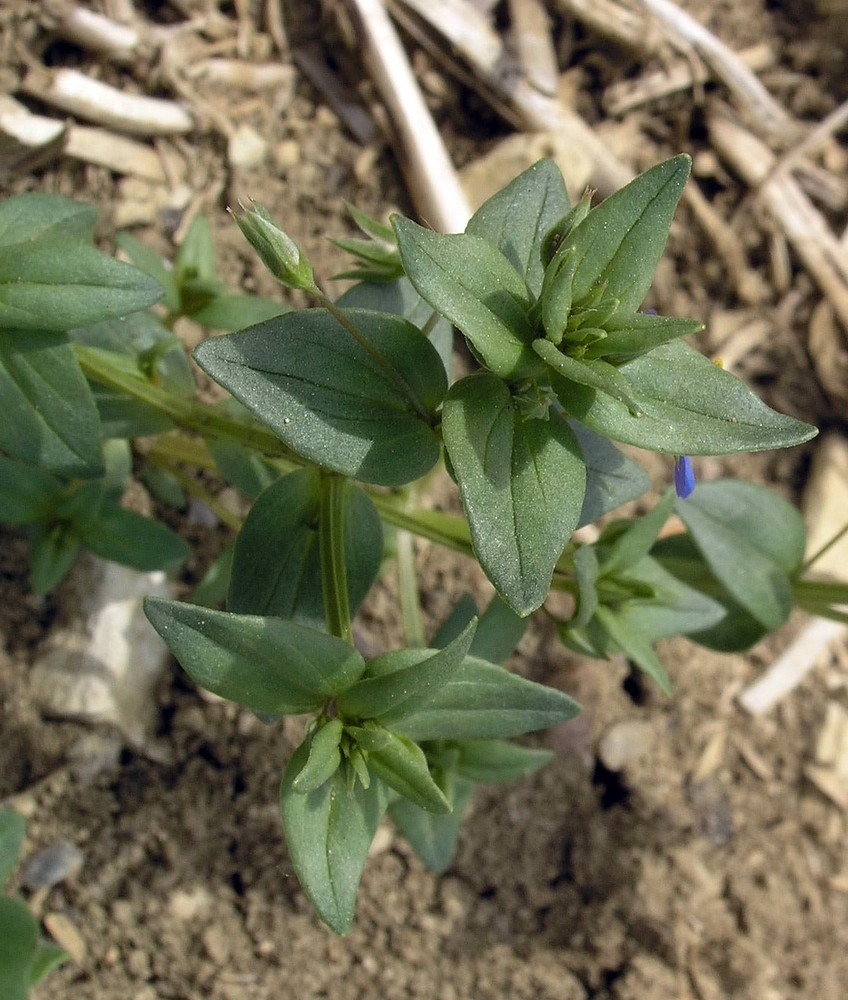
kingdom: Plantae
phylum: Tracheophyta
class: Magnoliopsida
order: Ericales
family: Primulaceae
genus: Lysimachia
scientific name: Lysimachia foemina
